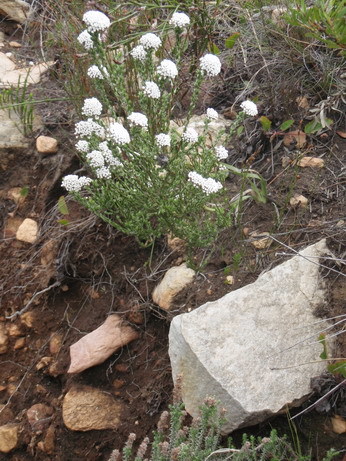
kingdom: Plantae
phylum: Tracheophyta
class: Magnoliopsida
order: Asterales
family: Asteraceae
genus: Metalasia
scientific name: Metalasia pungens
